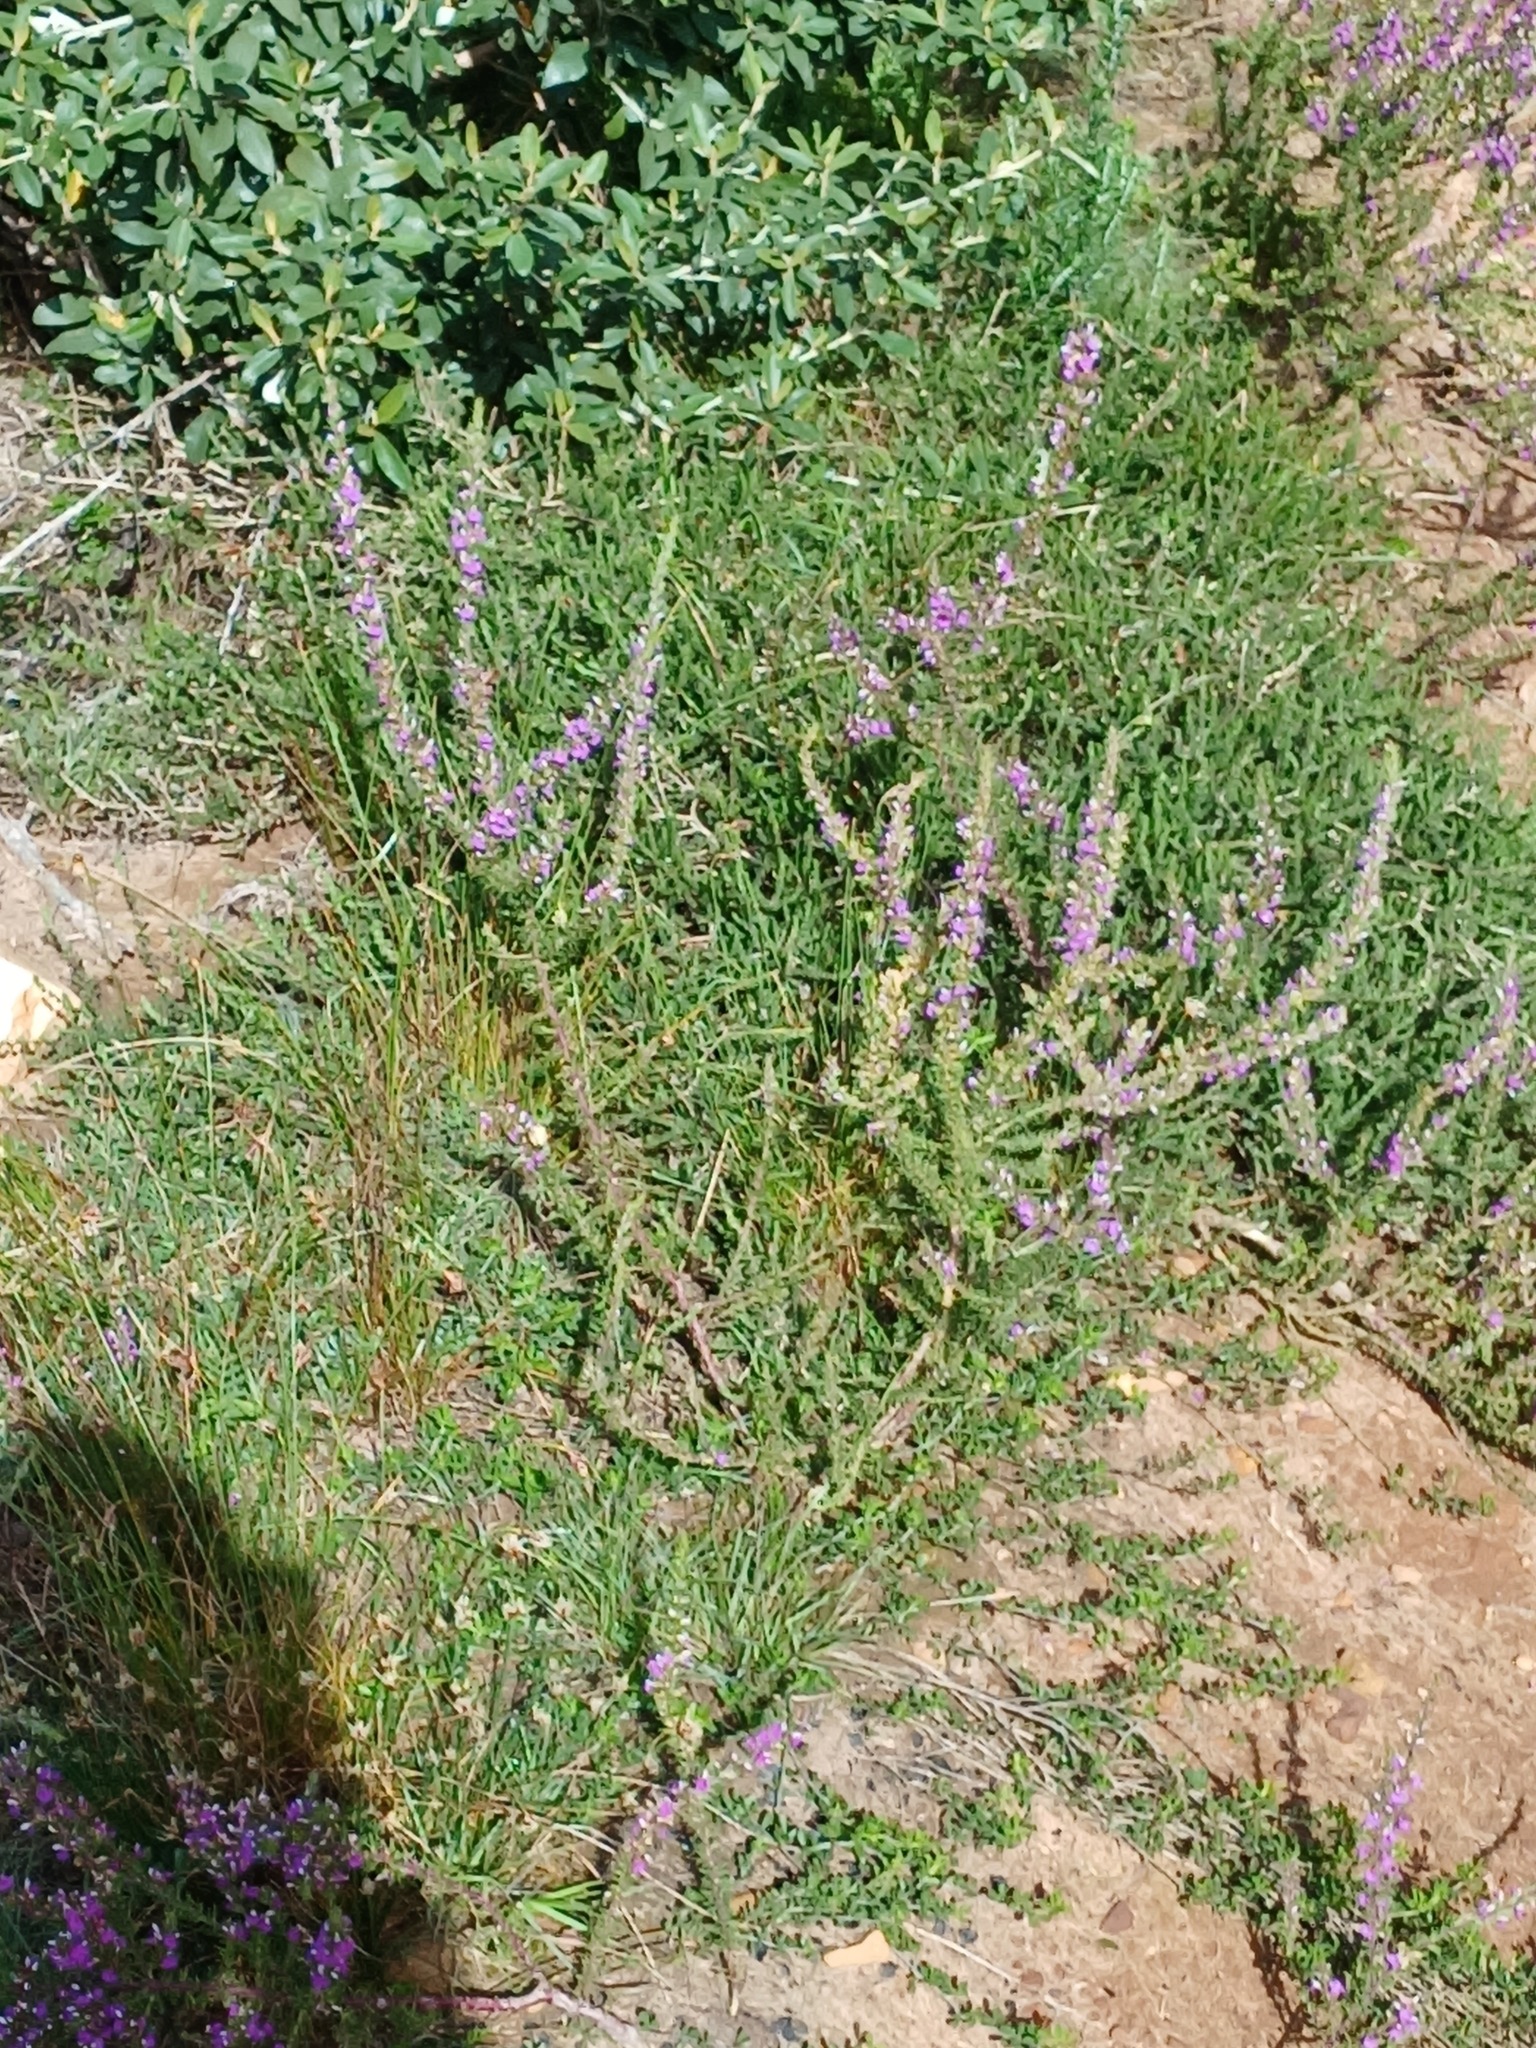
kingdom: Plantae
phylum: Tracheophyta
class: Magnoliopsida
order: Fabales
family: Polygalaceae
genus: Muraltia
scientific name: Muraltia heisteria
